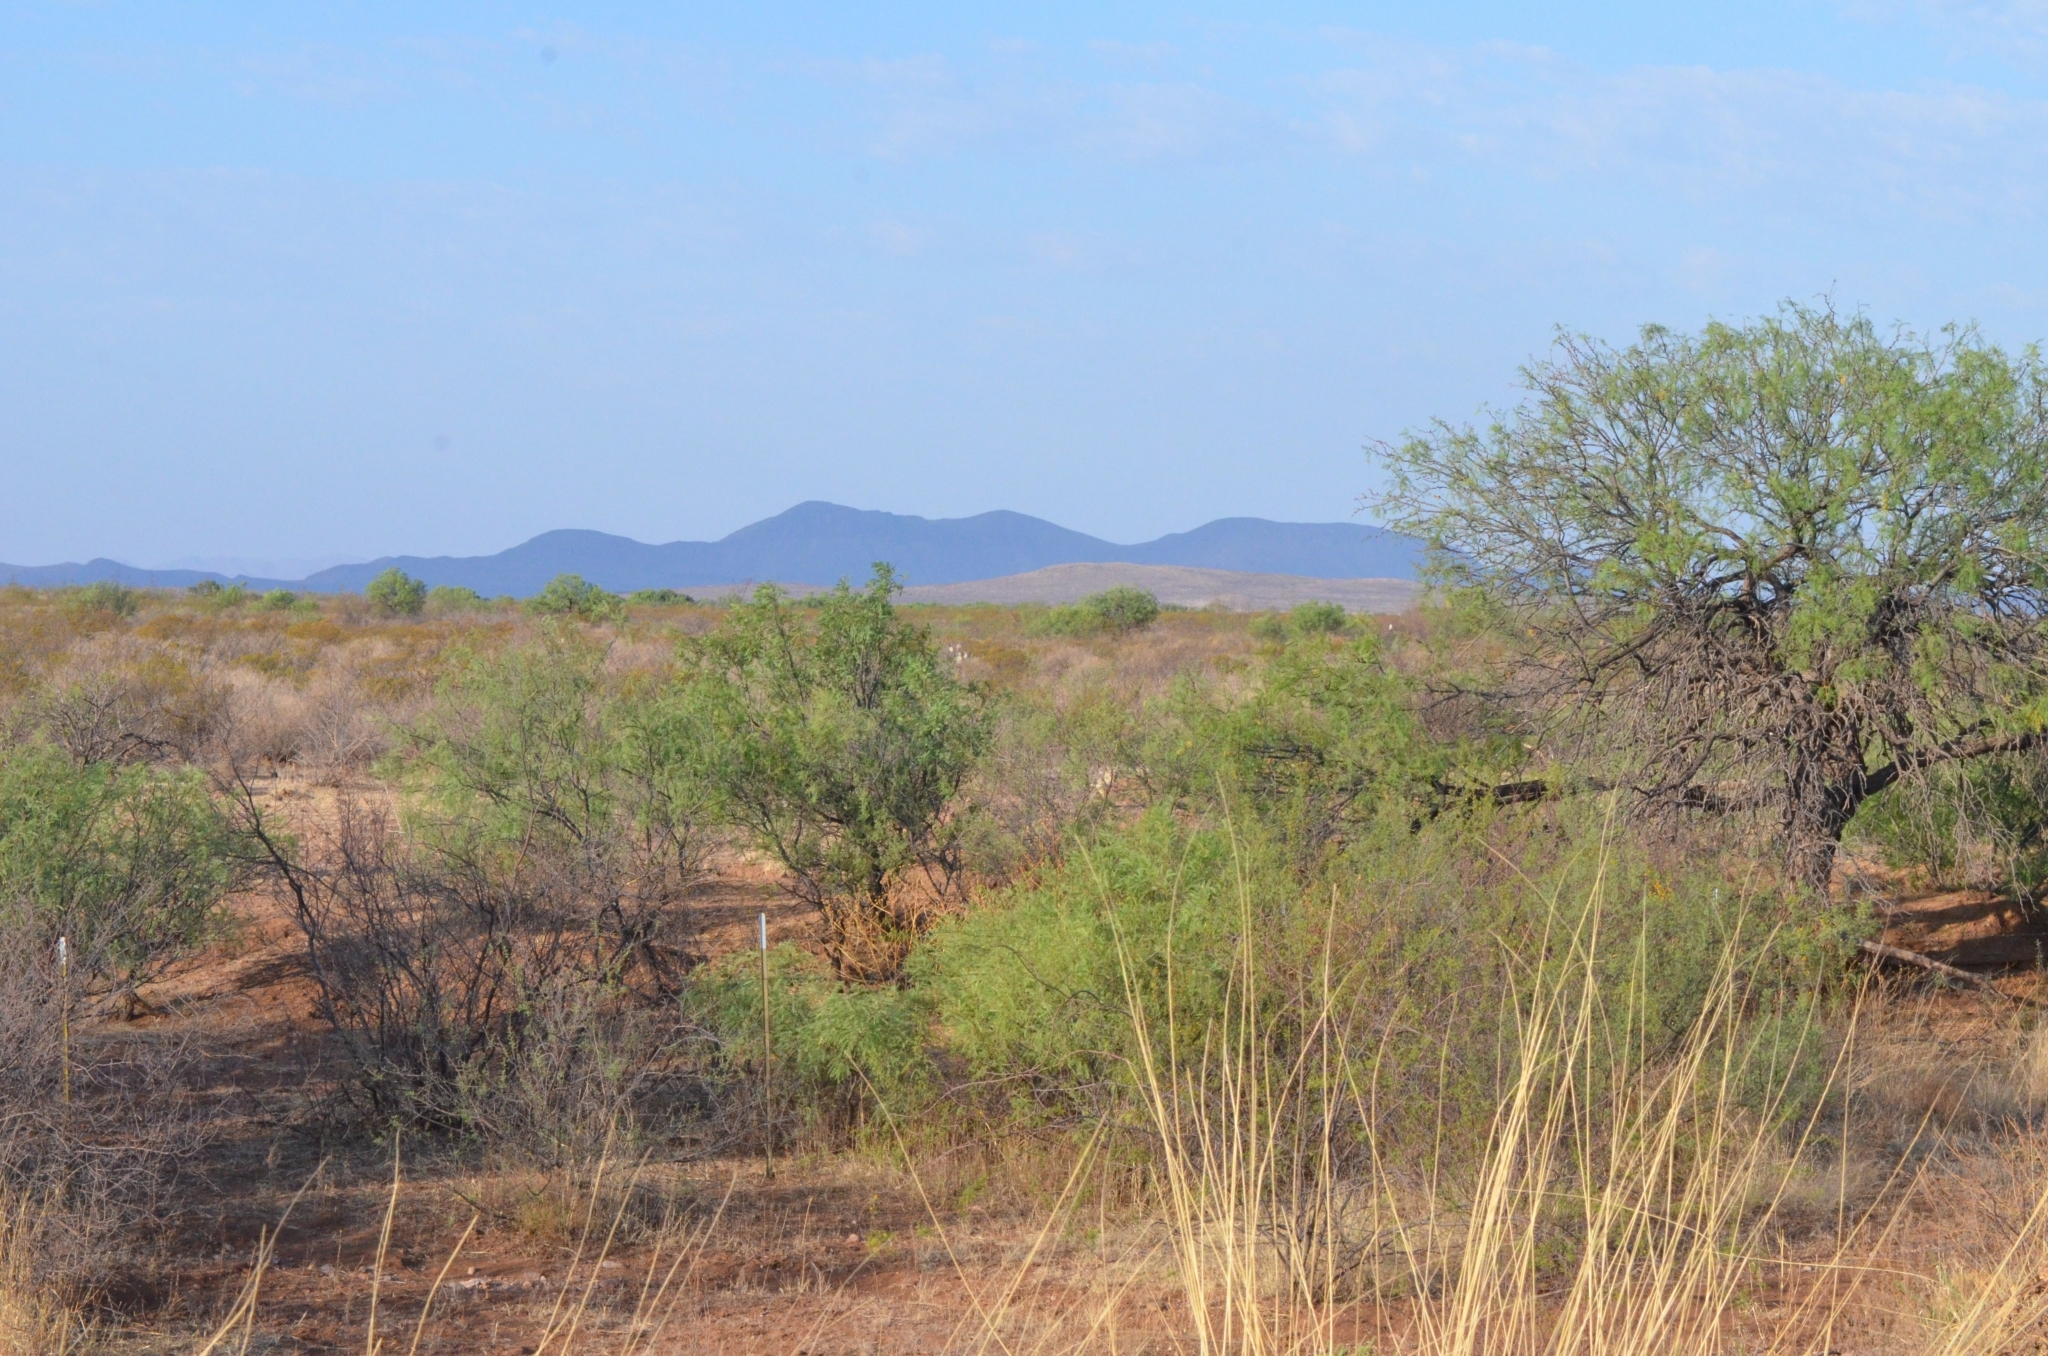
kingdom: Animalia
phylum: Chordata
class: Mammalia
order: Carnivora
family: Canidae
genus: Canis
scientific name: Canis latrans
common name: Coyote
